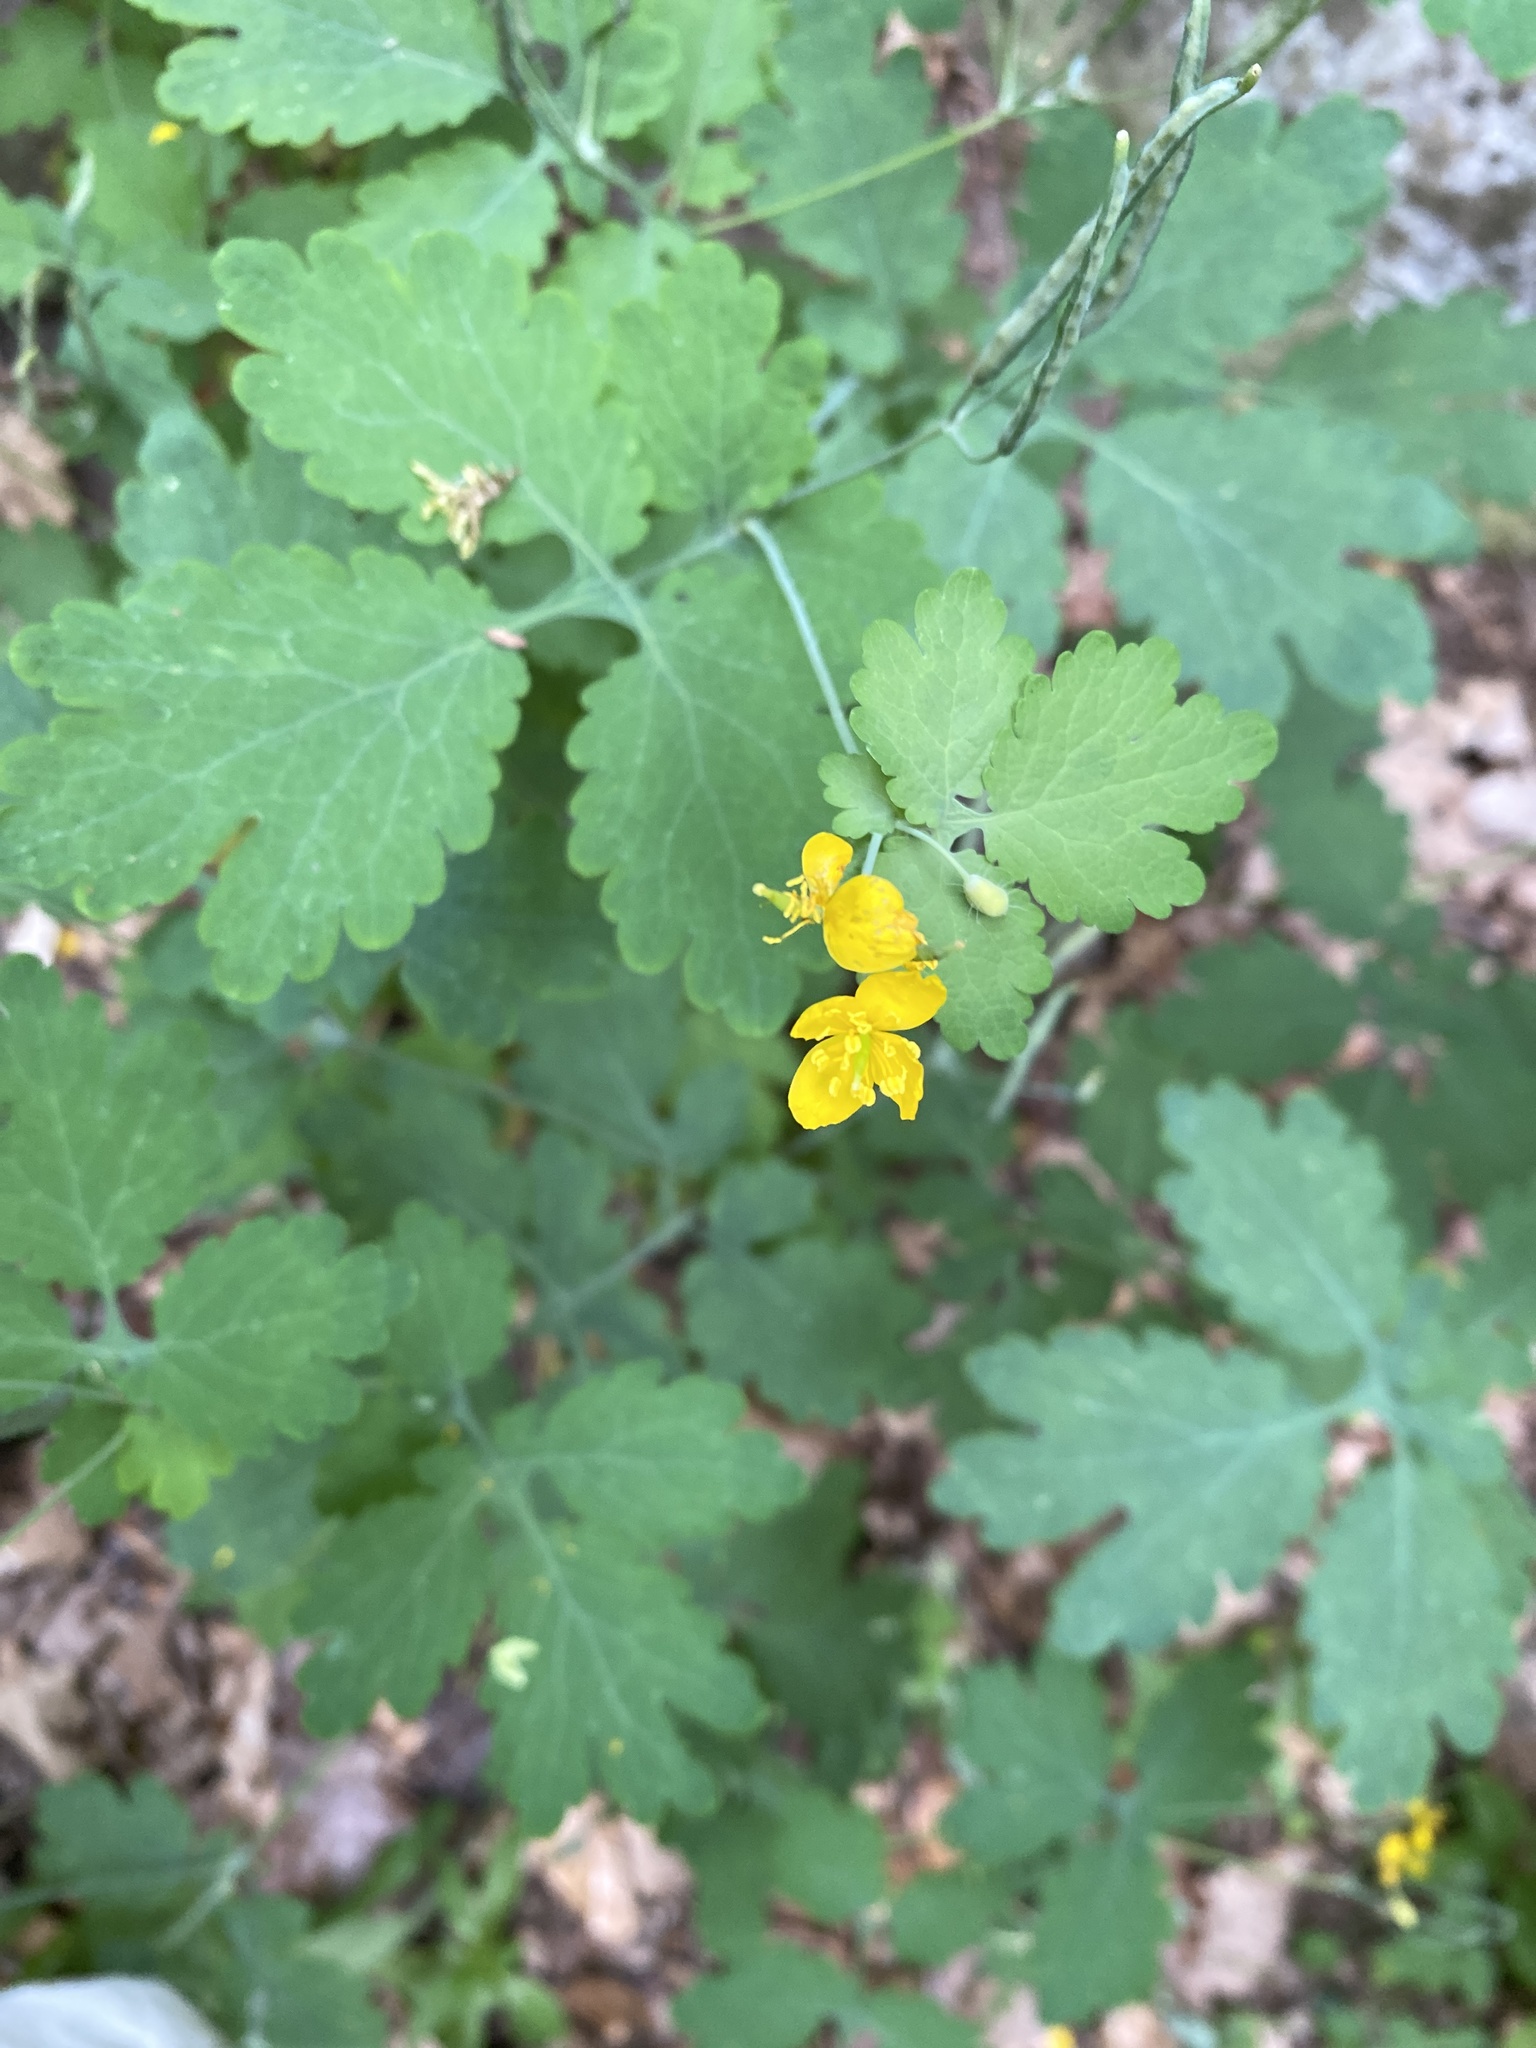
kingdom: Plantae
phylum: Tracheophyta
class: Magnoliopsida
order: Ranunculales
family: Papaveraceae
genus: Chelidonium
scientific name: Chelidonium majus
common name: Greater celandine
